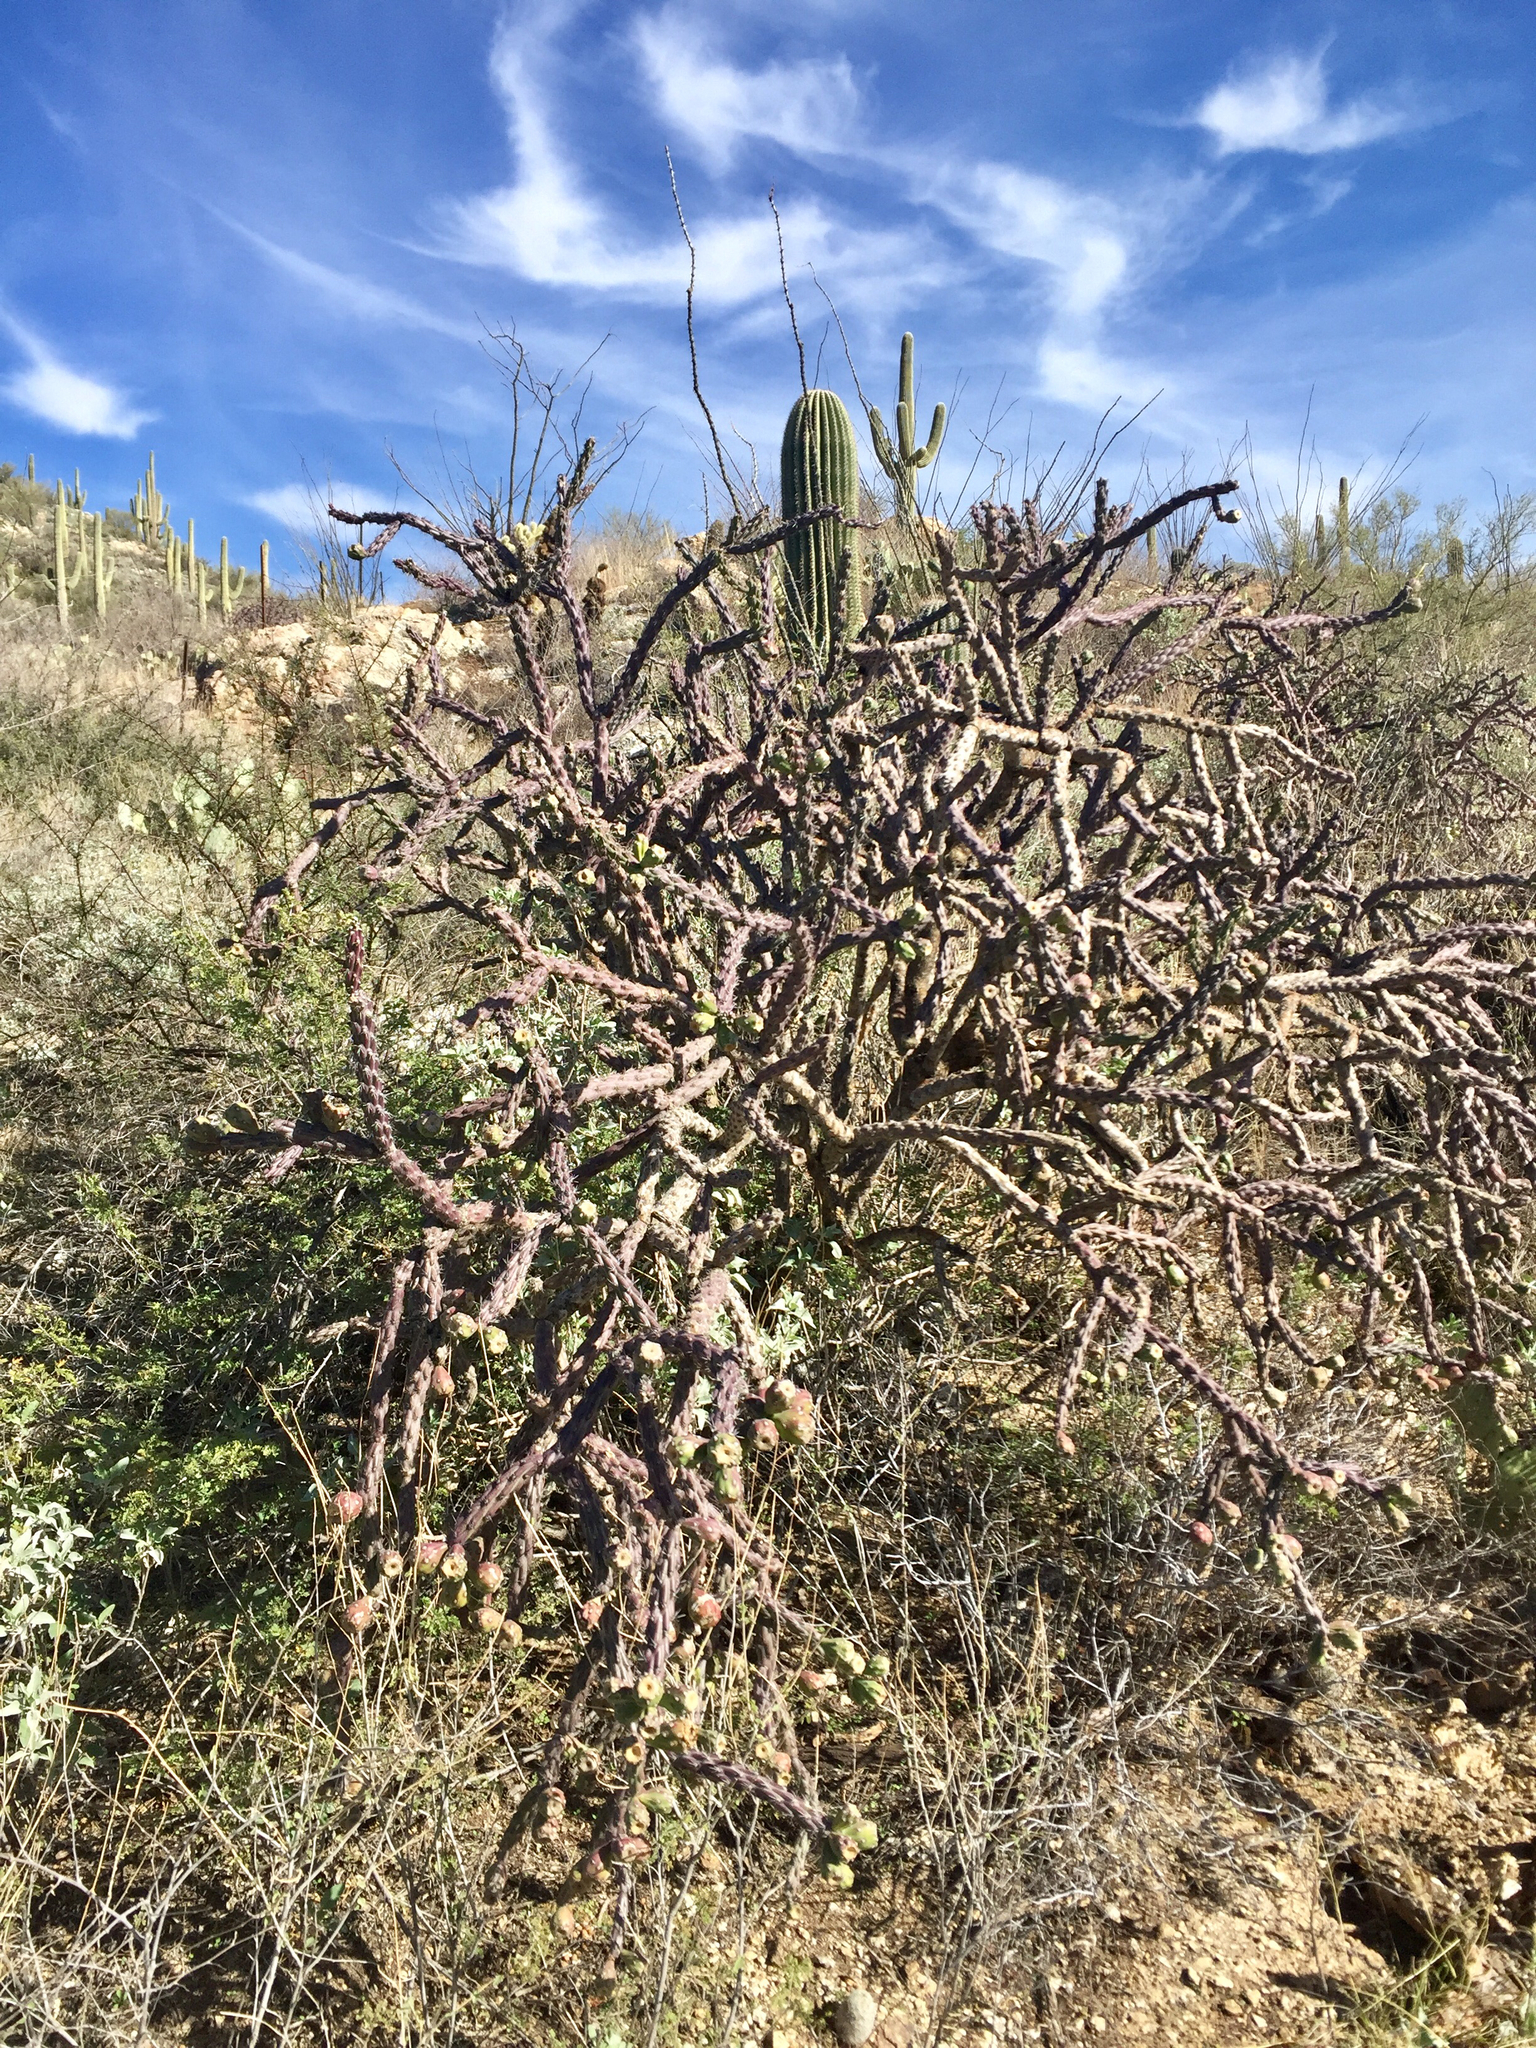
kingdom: Plantae
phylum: Tracheophyta
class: Magnoliopsida
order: Caryophyllales
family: Cactaceae
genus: Cylindropuntia
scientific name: Cylindropuntia thurberi
